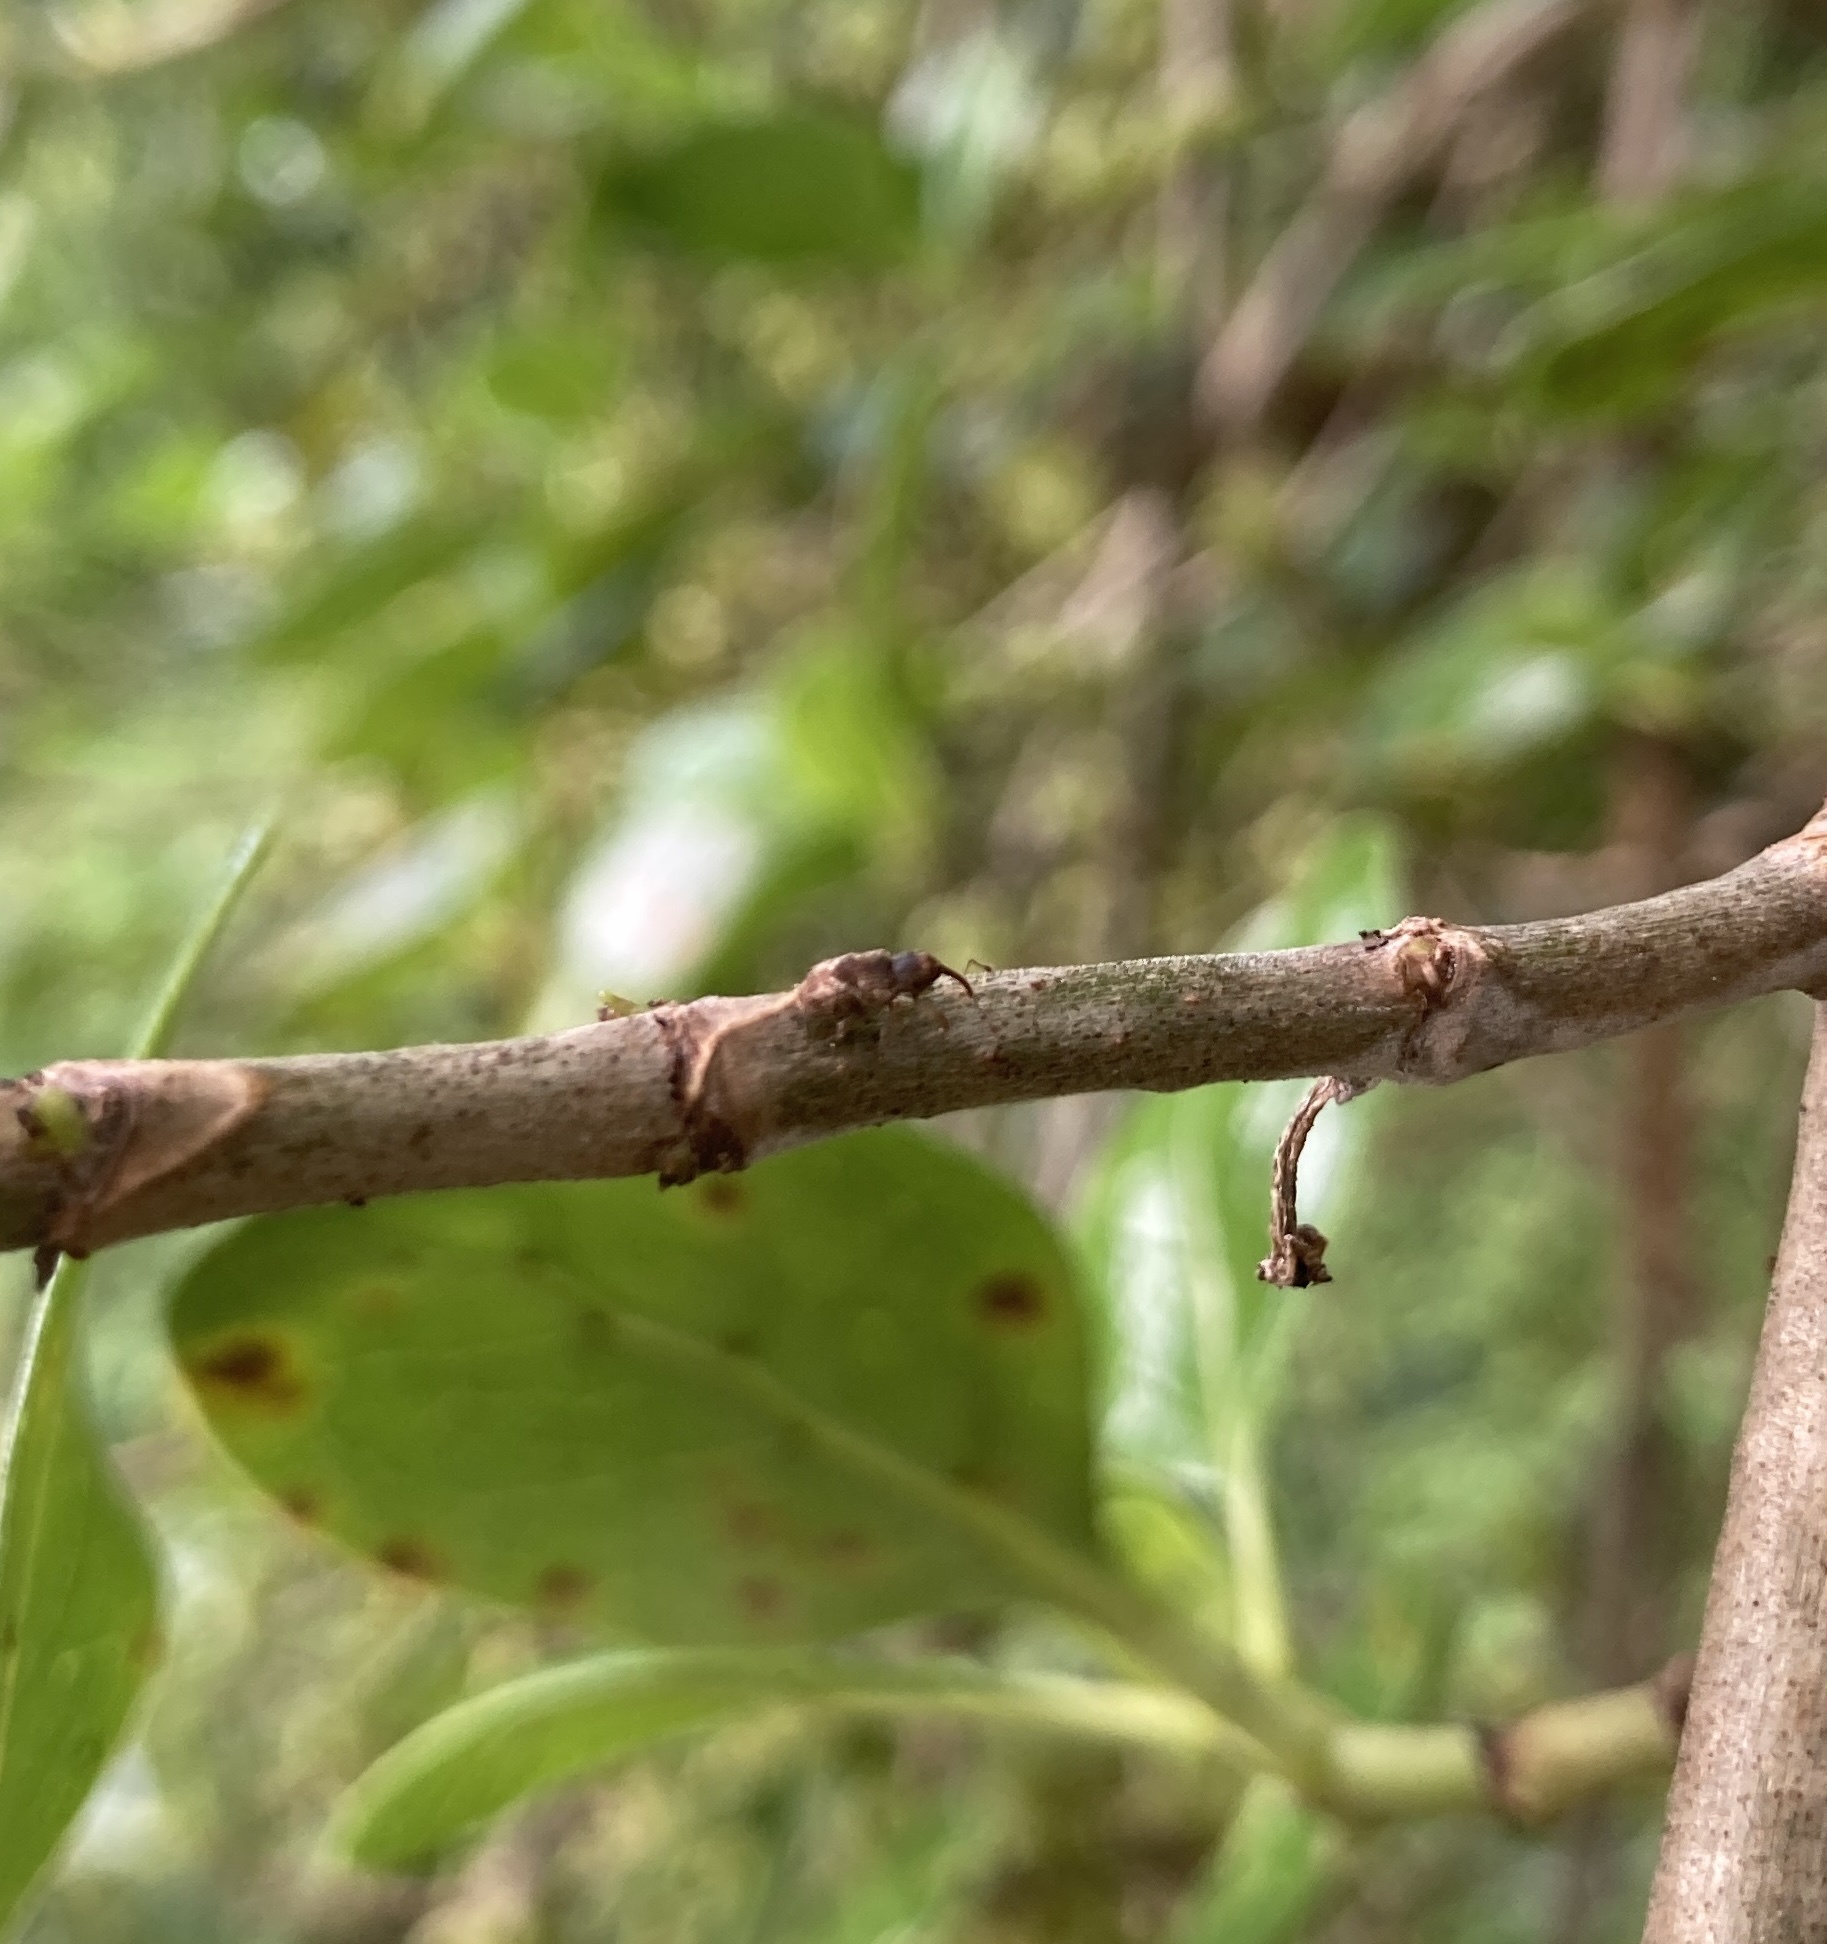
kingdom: Animalia
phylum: Arthropoda
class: Insecta
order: Coleoptera
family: Curculionidae
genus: Praolepra
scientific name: Praolepra infusca
